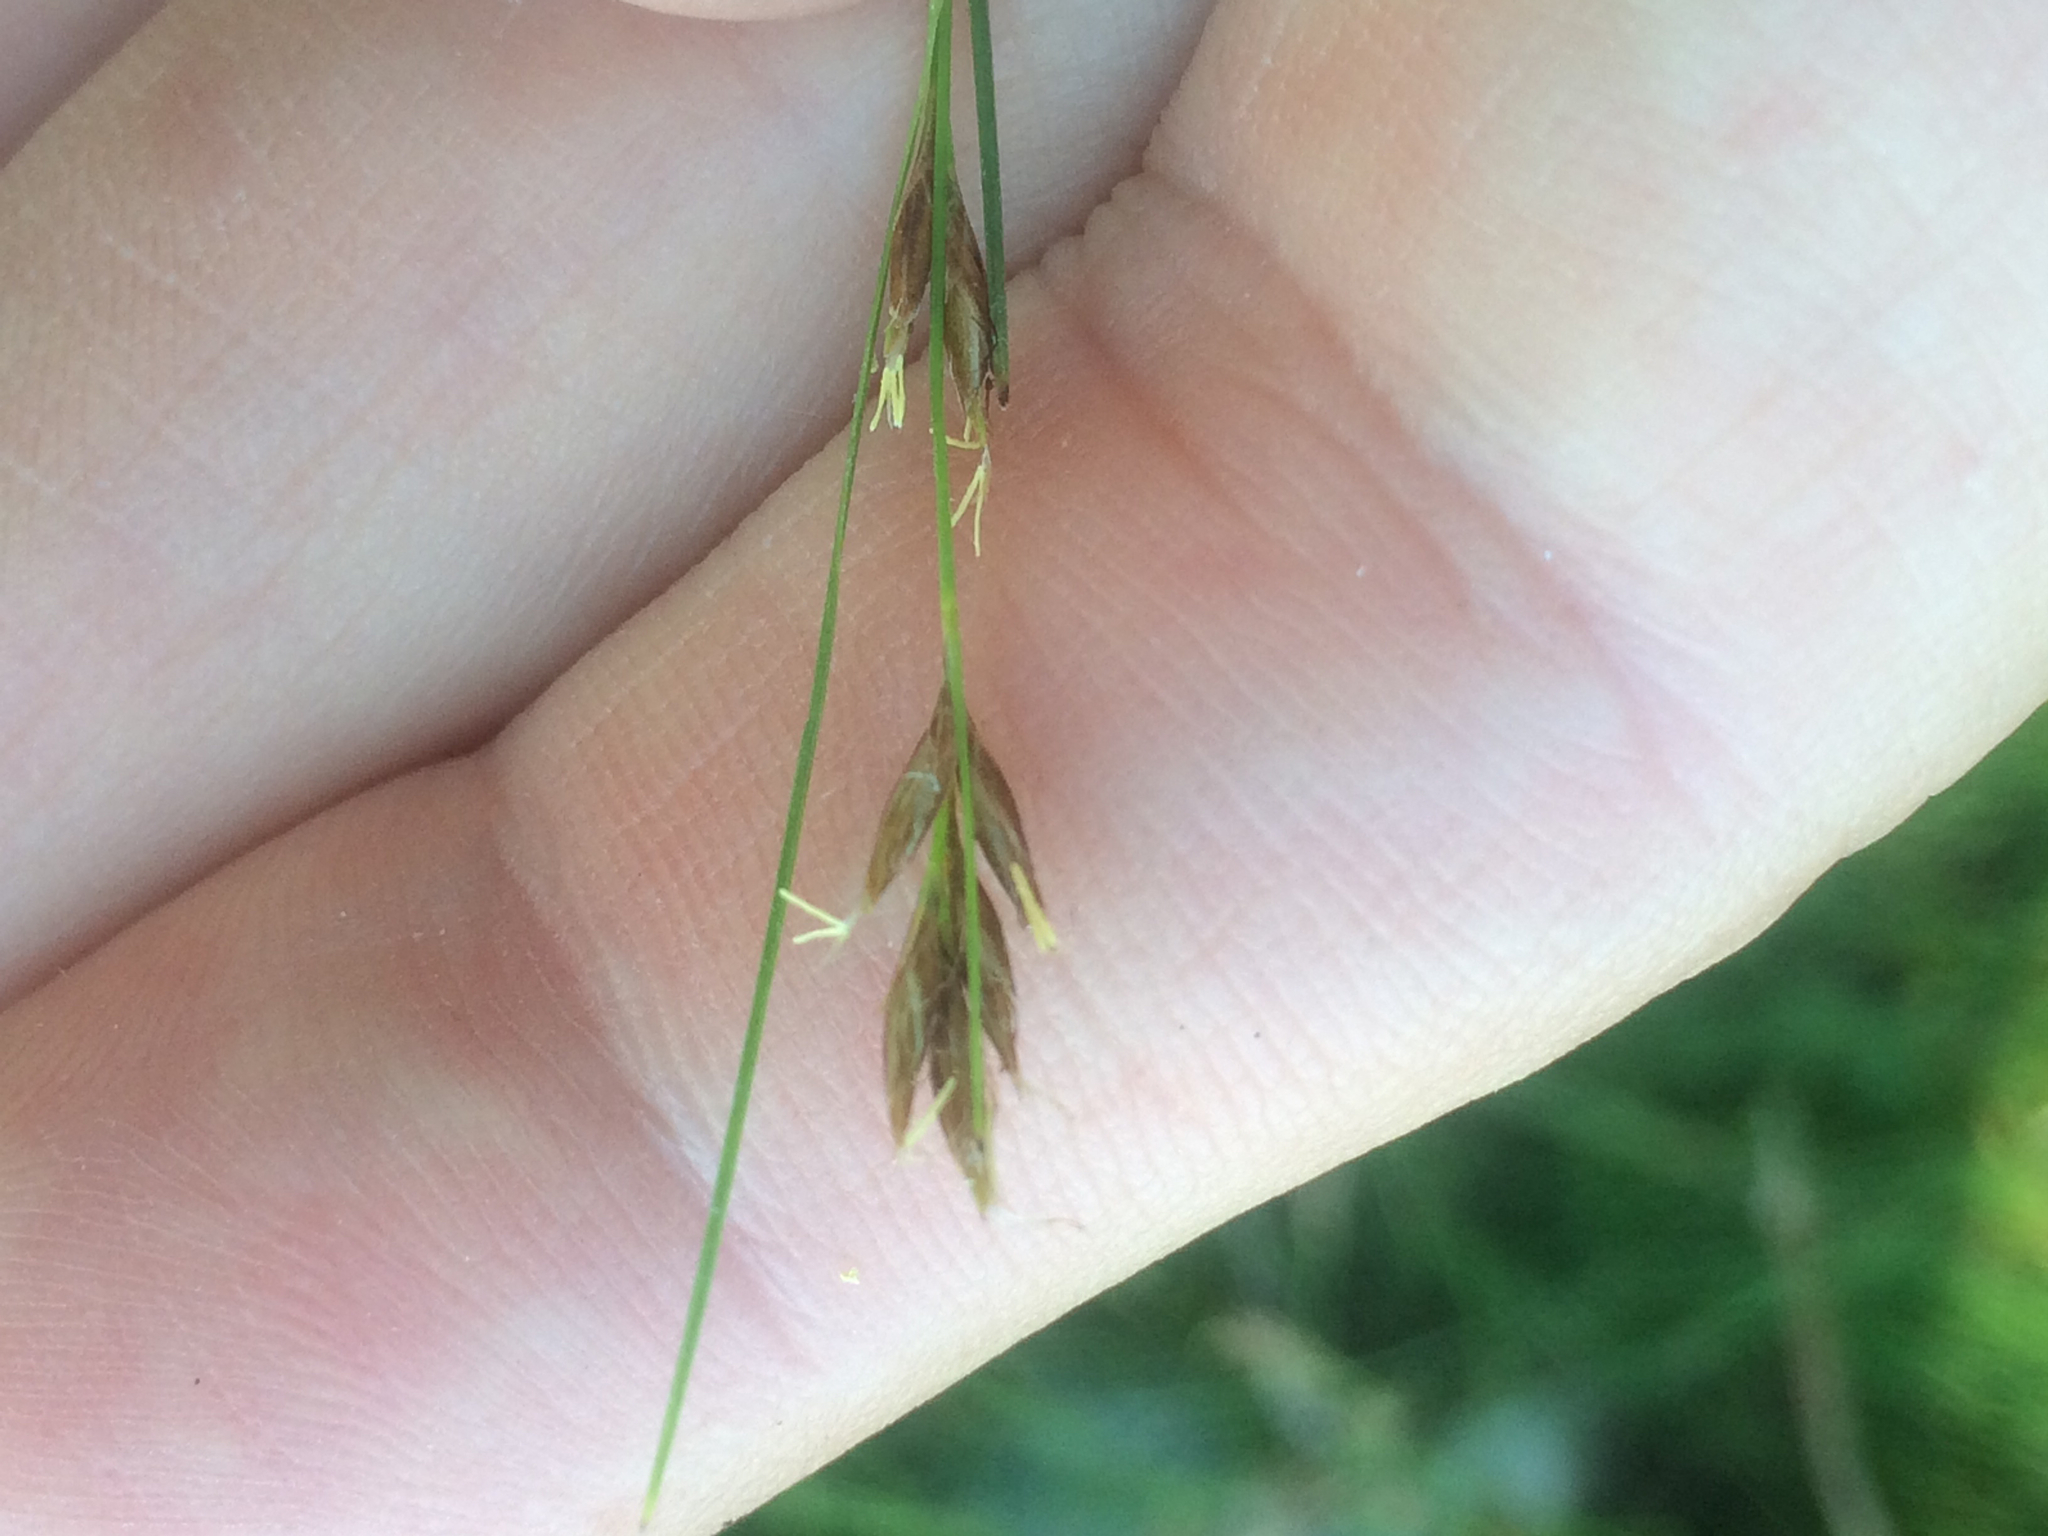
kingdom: Plantae
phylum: Tracheophyta
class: Liliopsida
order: Poales
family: Cyperaceae
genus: Rhynchospora
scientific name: Rhynchospora capillacea
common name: Capillary beakrush
